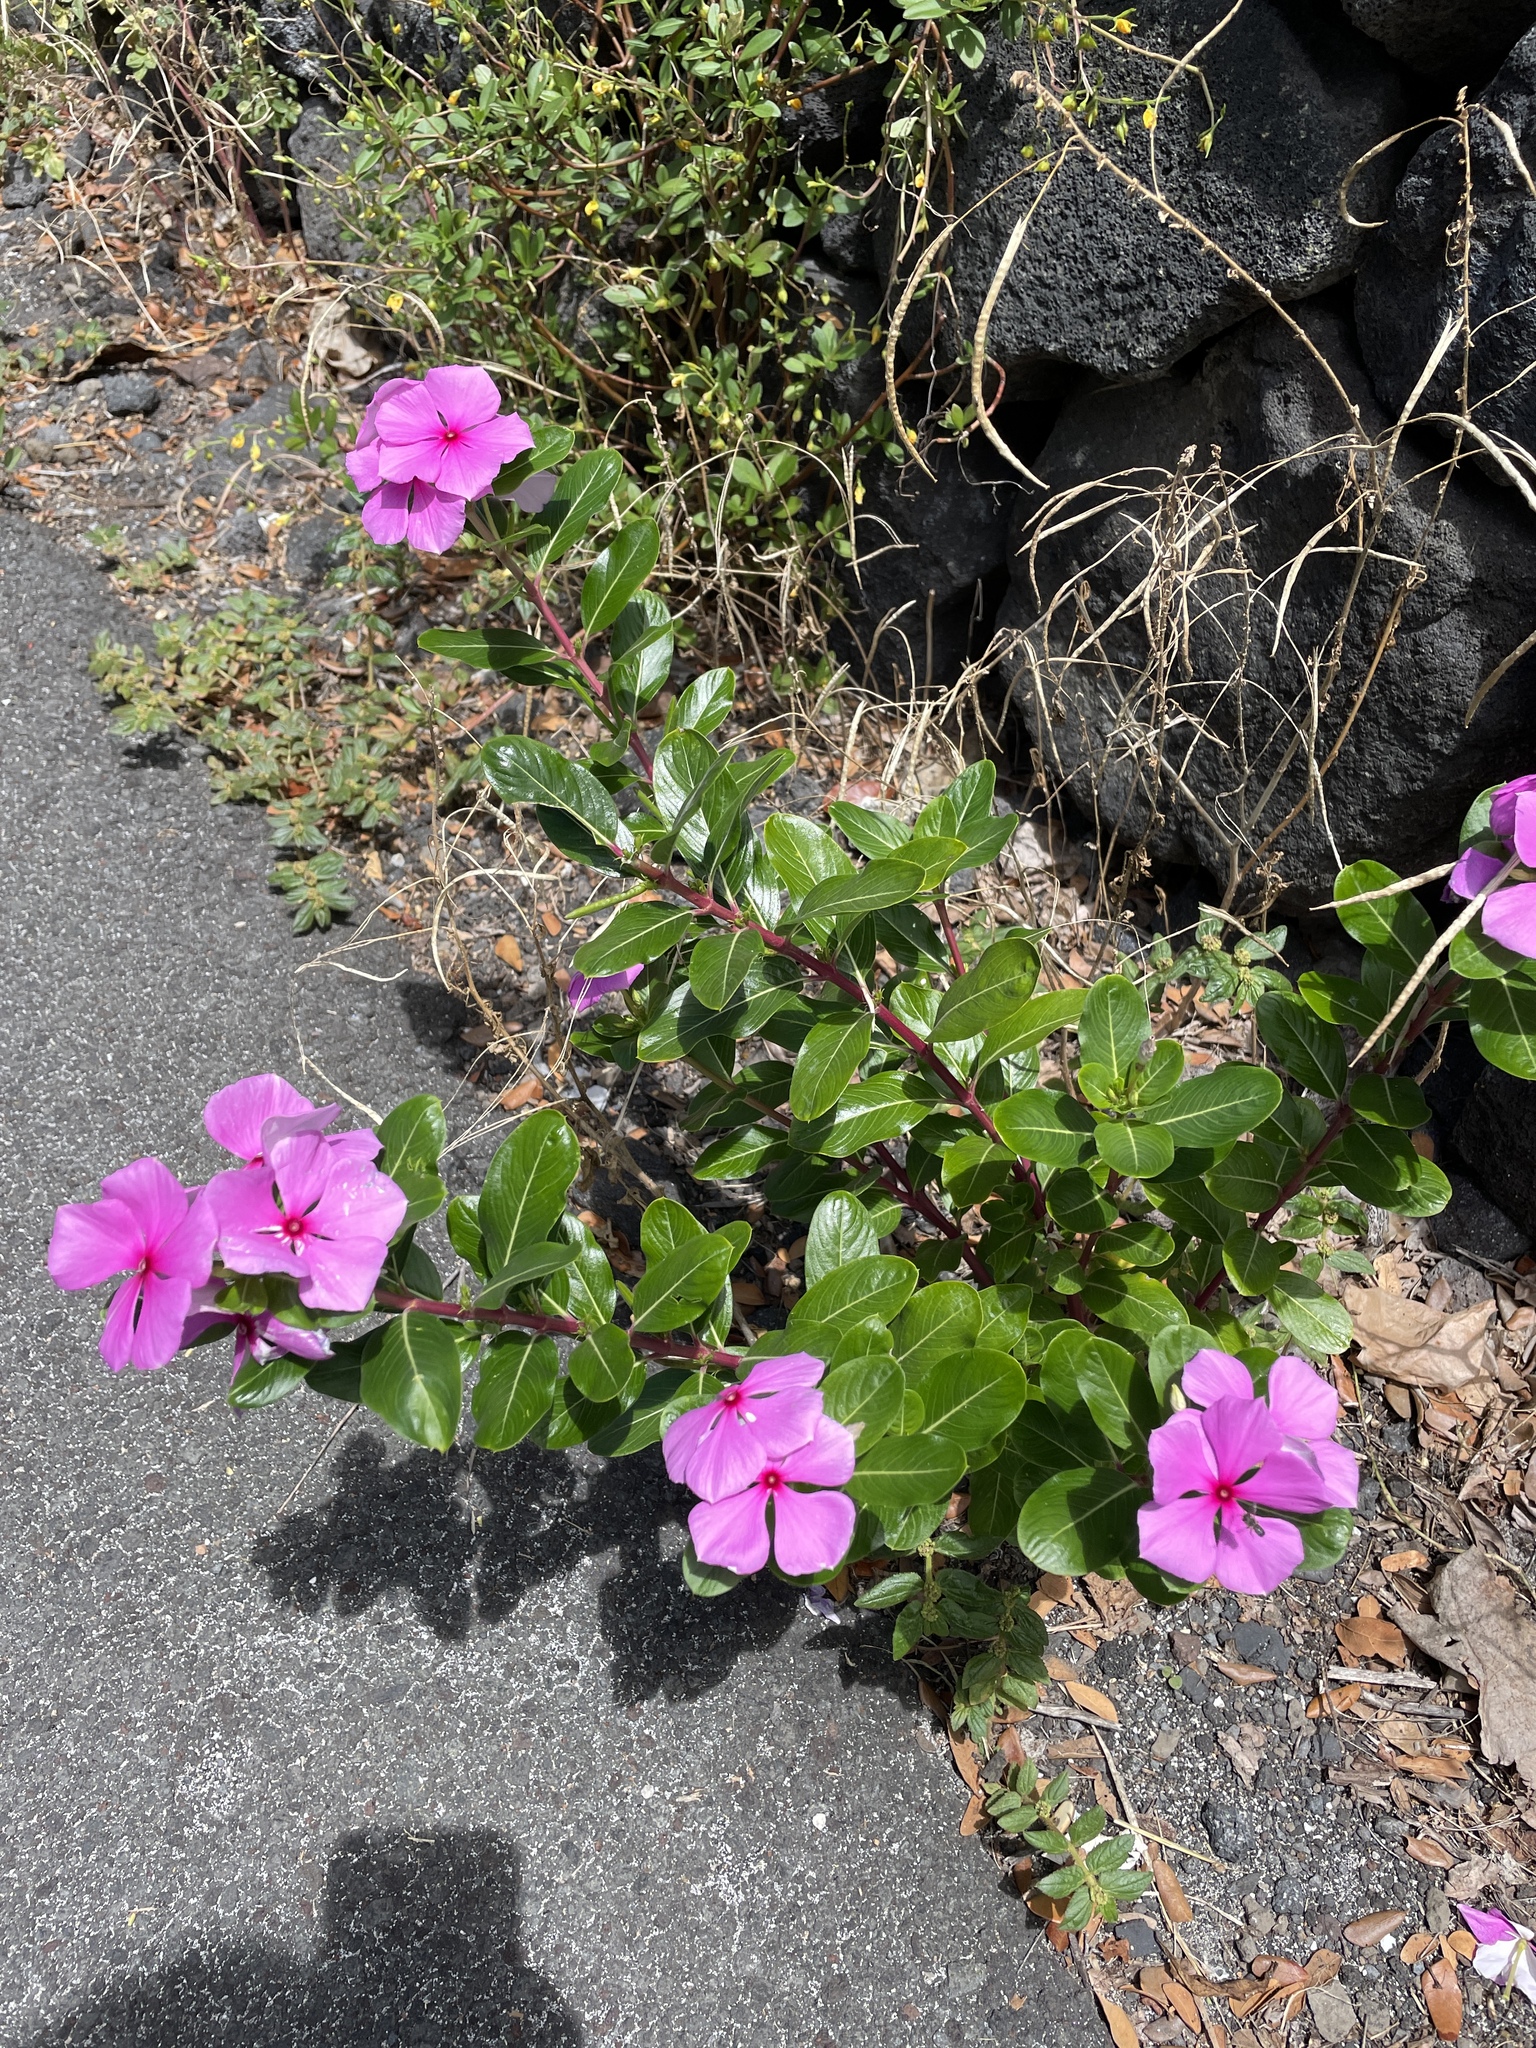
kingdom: Plantae
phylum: Tracheophyta
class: Magnoliopsida
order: Gentianales
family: Apocynaceae
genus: Catharanthus
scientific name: Catharanthus roseus
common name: Madagascar periwinkle
